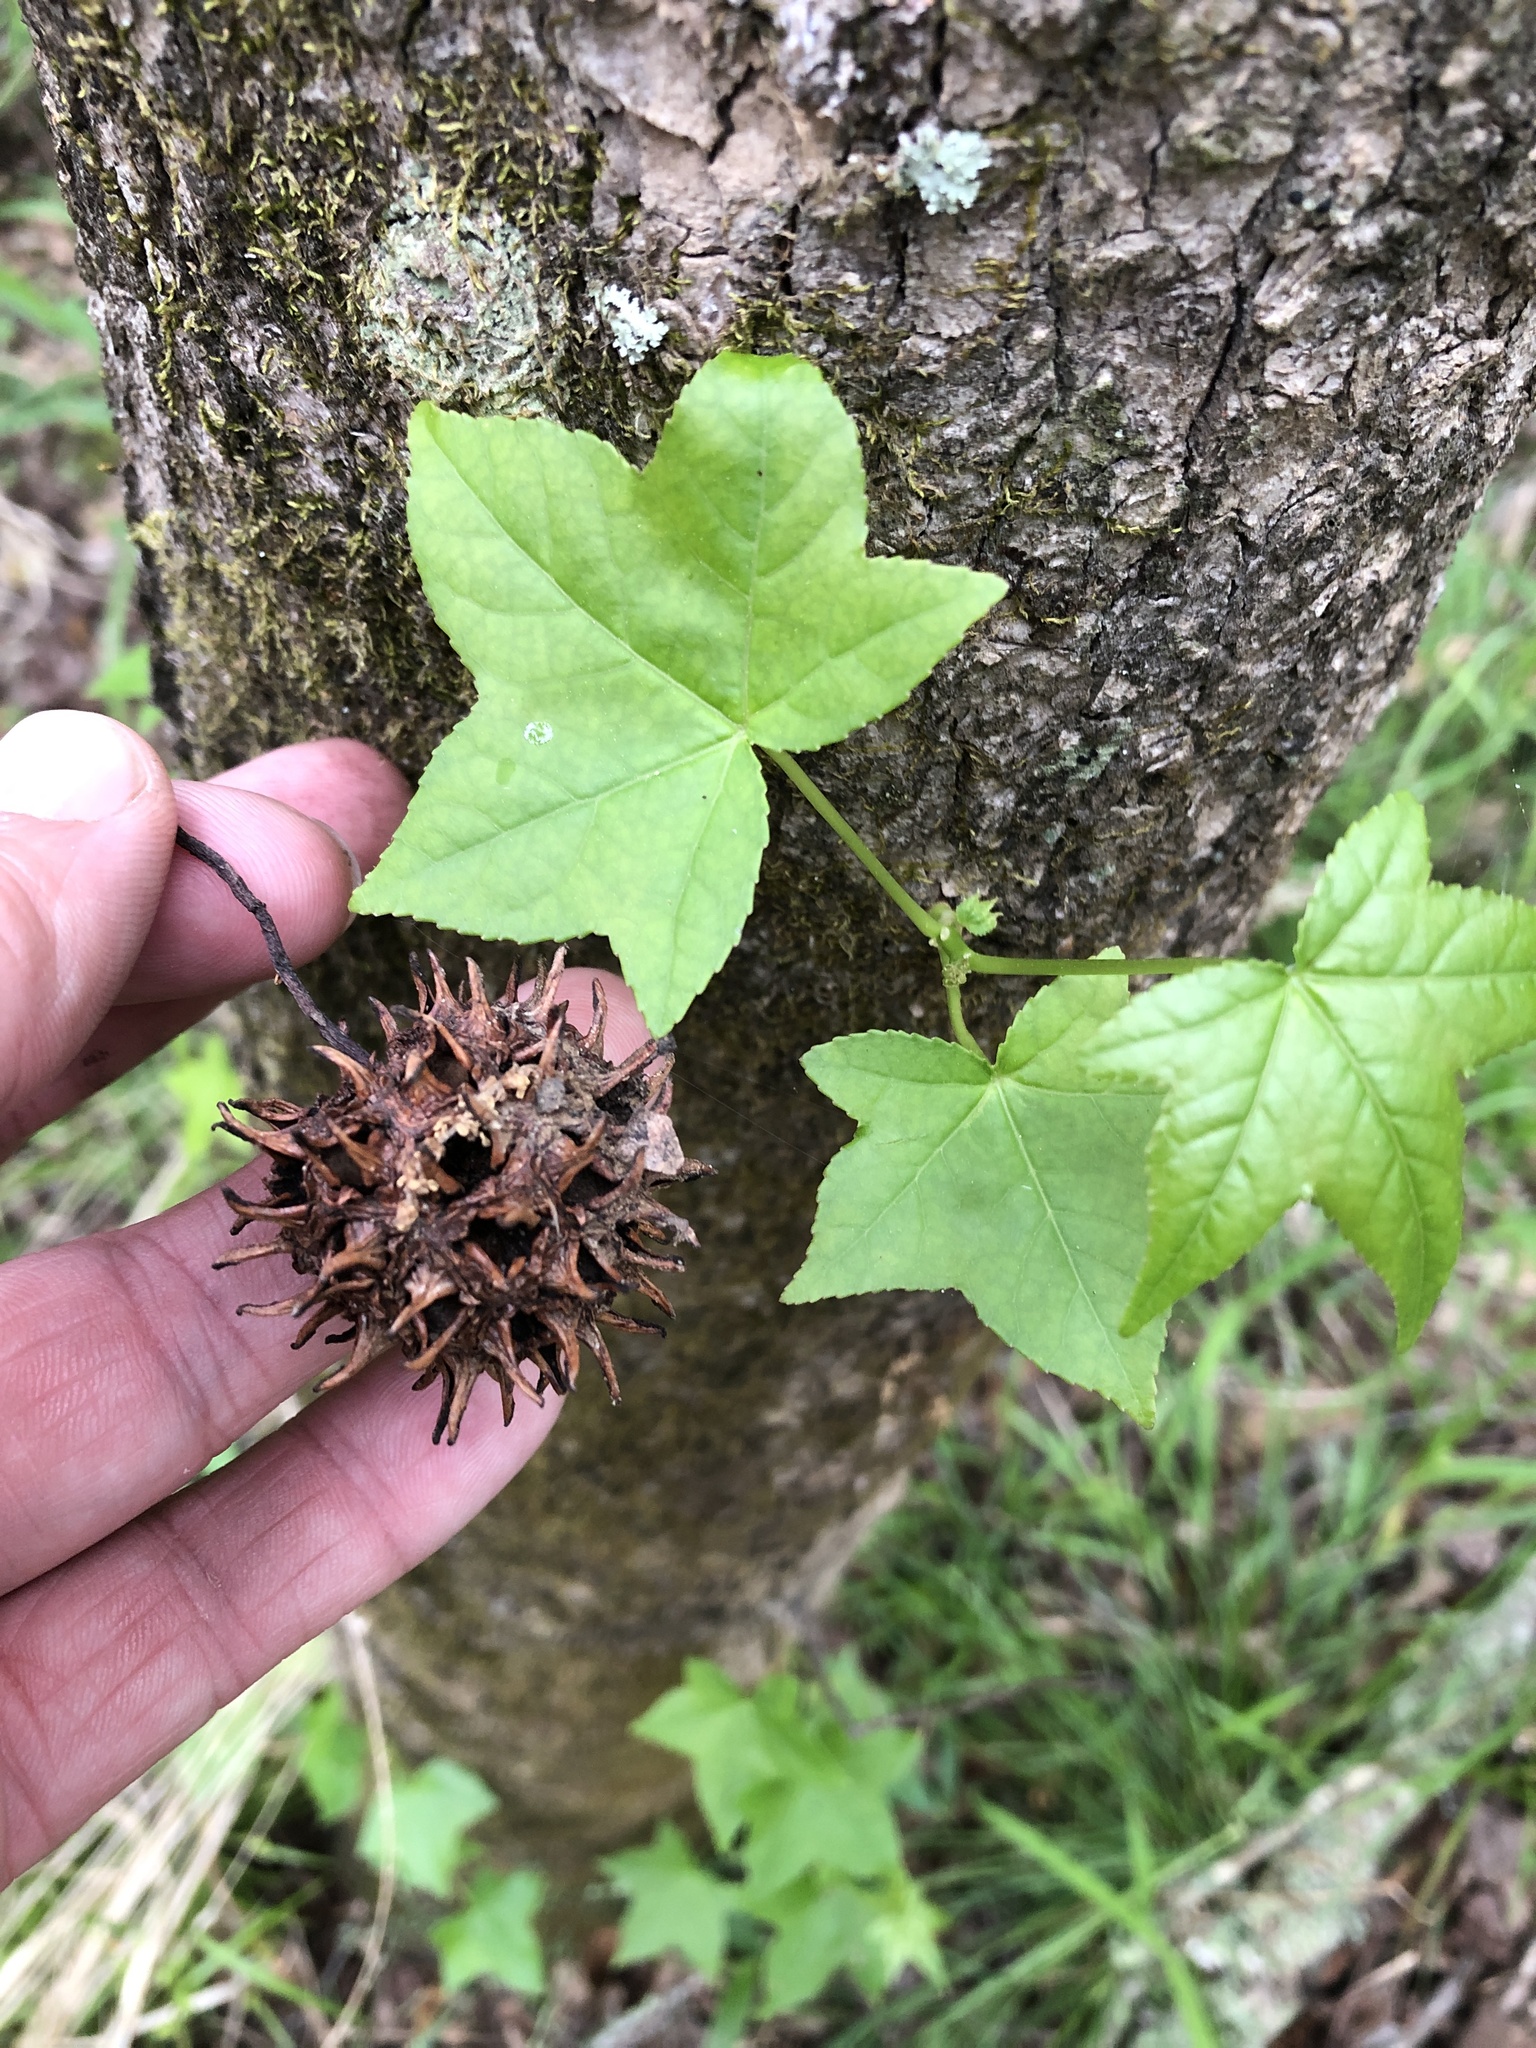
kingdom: Plantae
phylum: Tracheophyta
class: Magnoliopsida
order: Saxifragales
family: Altingiaceae
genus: Liquidambar
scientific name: Liquidambar styraciflua
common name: Sweet gum
